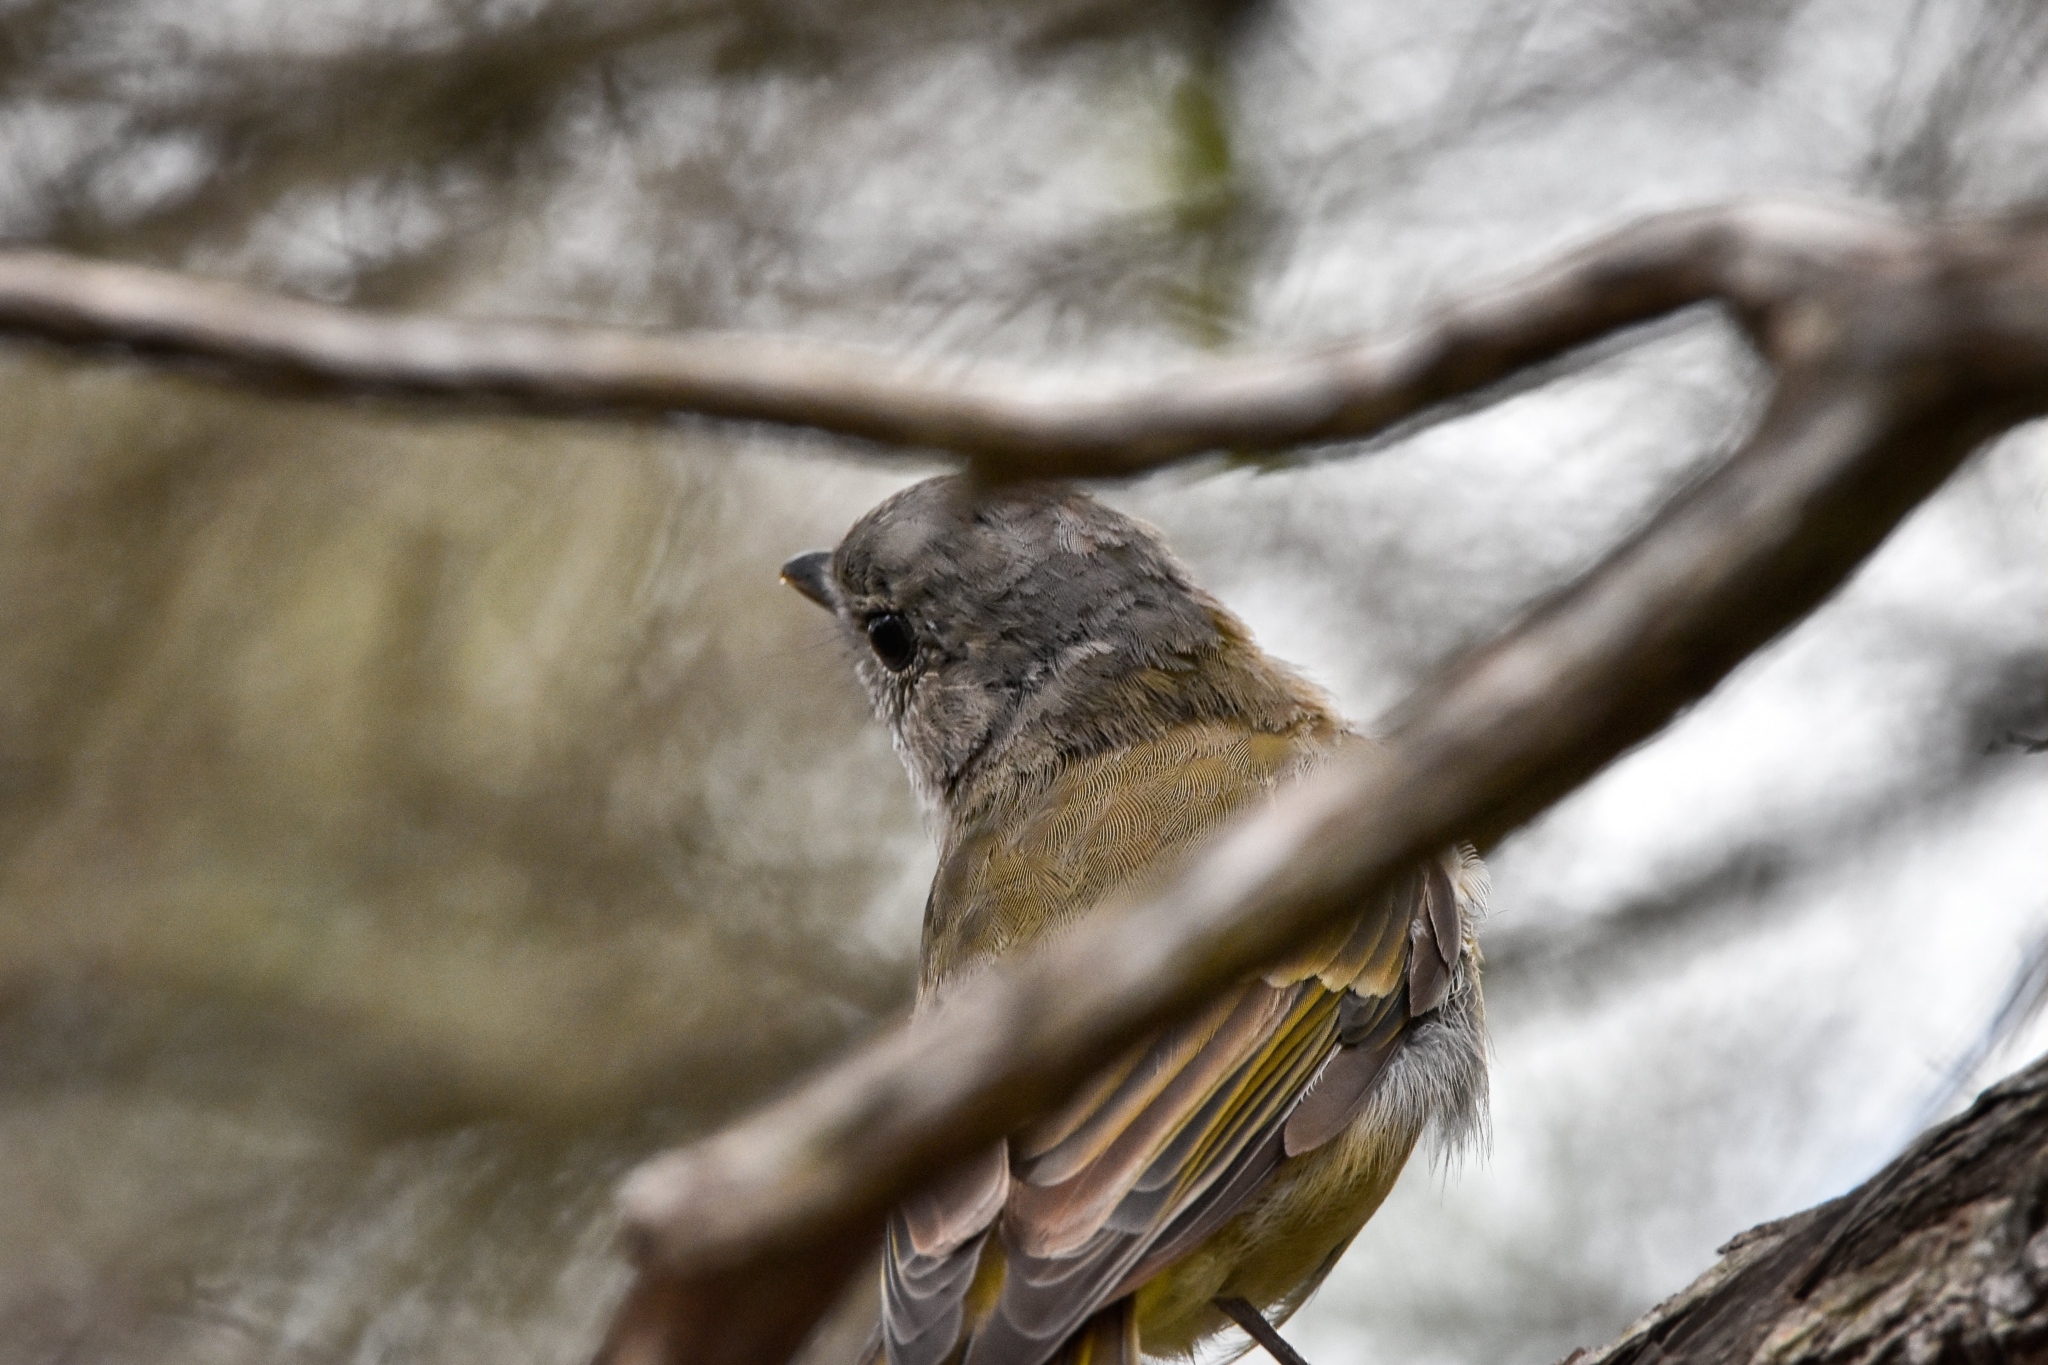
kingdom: Animalia
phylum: Chordata
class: Aves
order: Passeriformes
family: Pachycephalidae
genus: Pachycephala
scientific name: Pachycephala pectoralis
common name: Australian golden whistler
